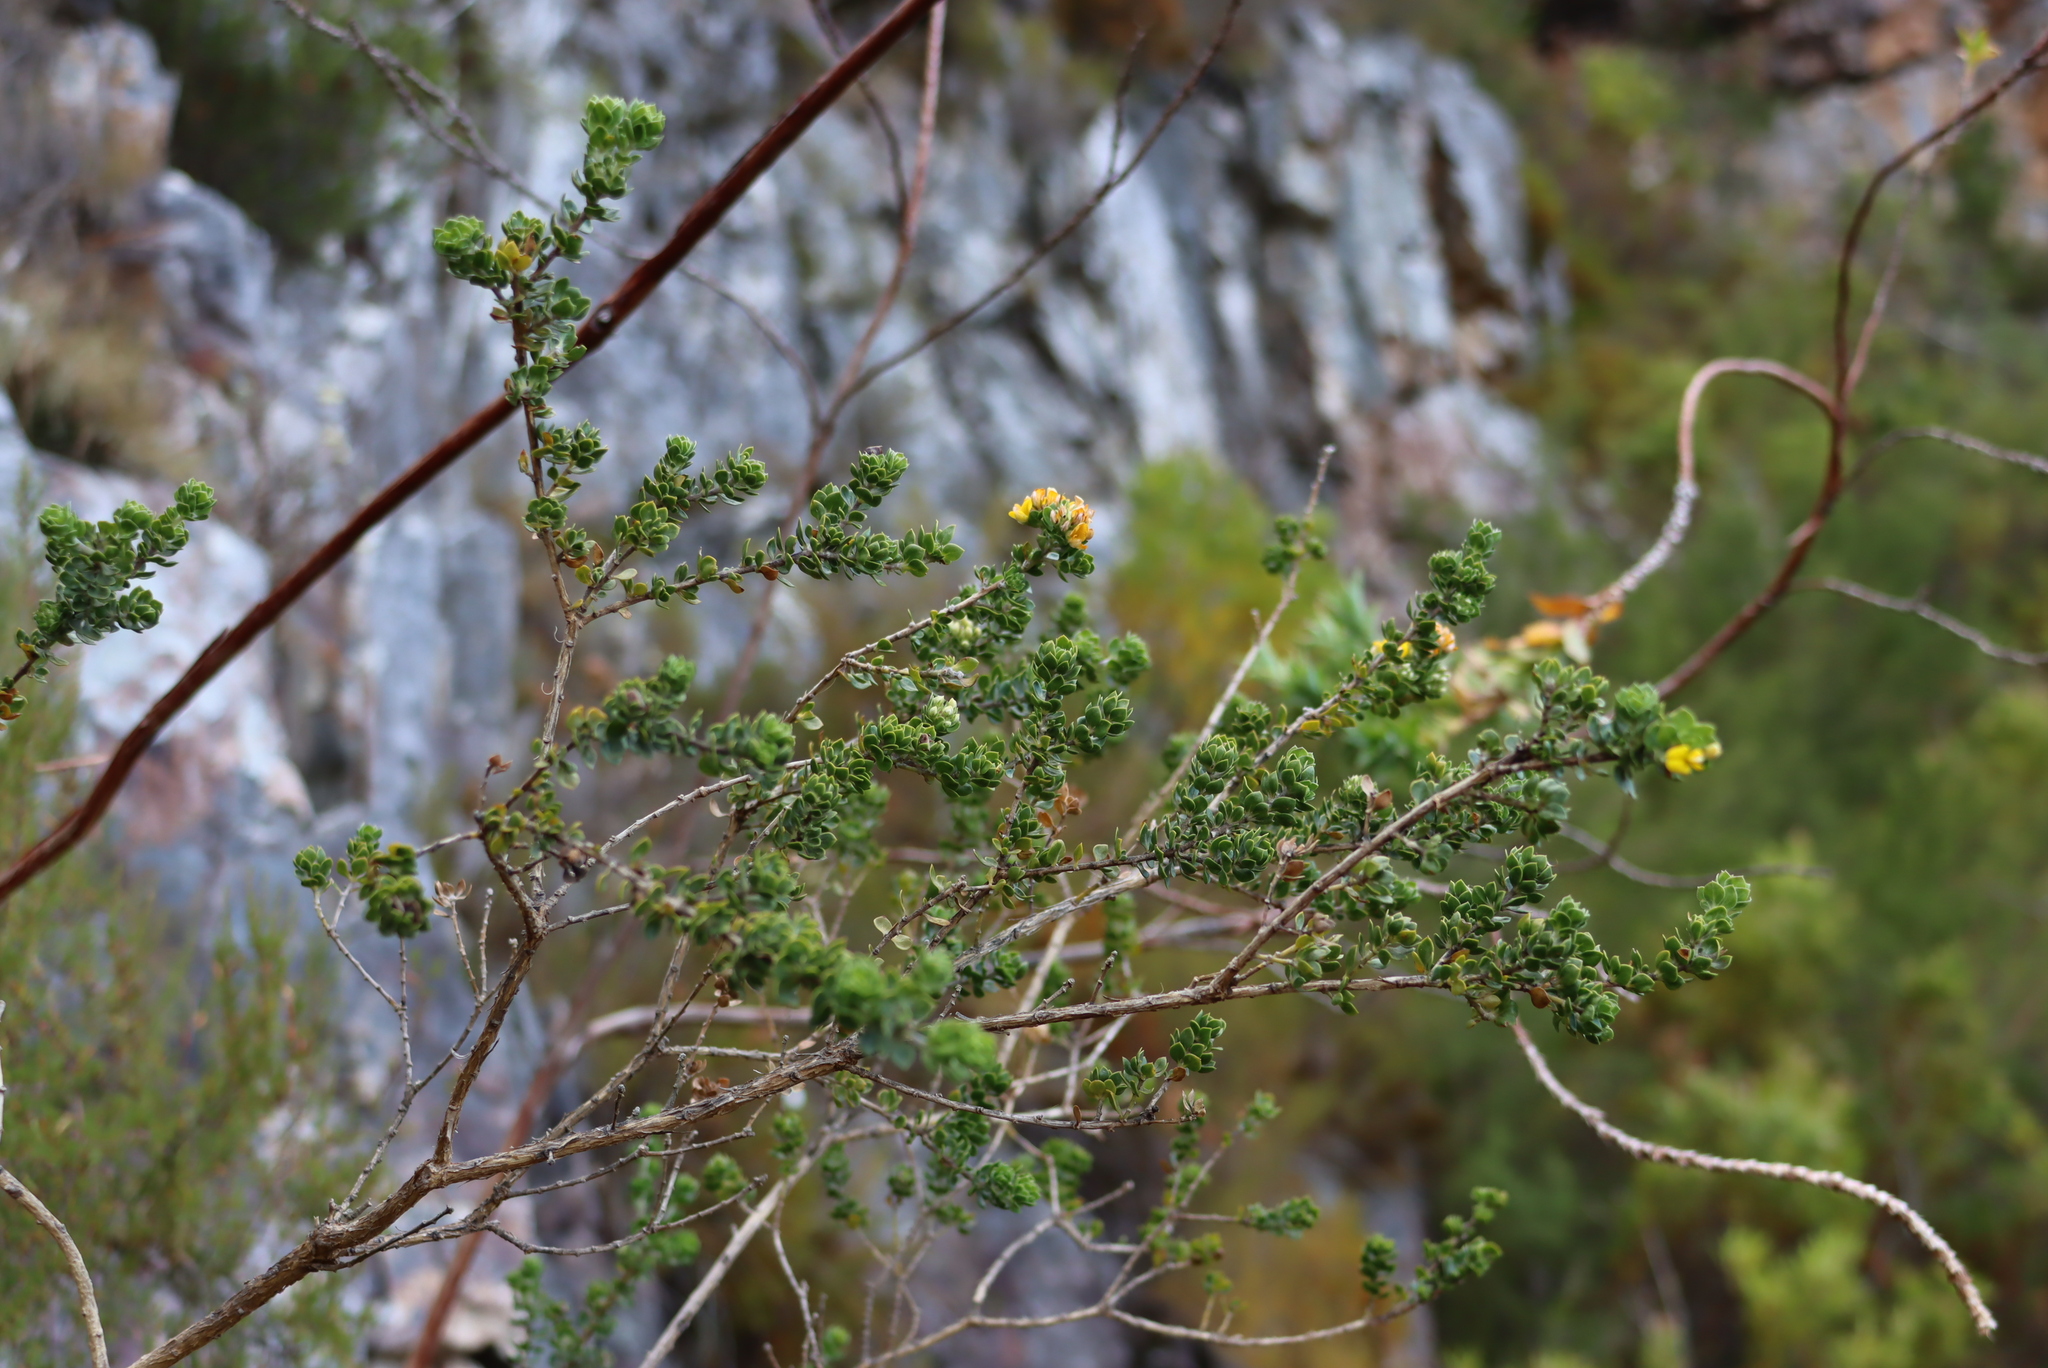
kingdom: Plantae
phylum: Tracheophyta
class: Magnoliopsida
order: Fabales
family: Fabaceae
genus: Aspalathus
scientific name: Aspalathus securifolia
